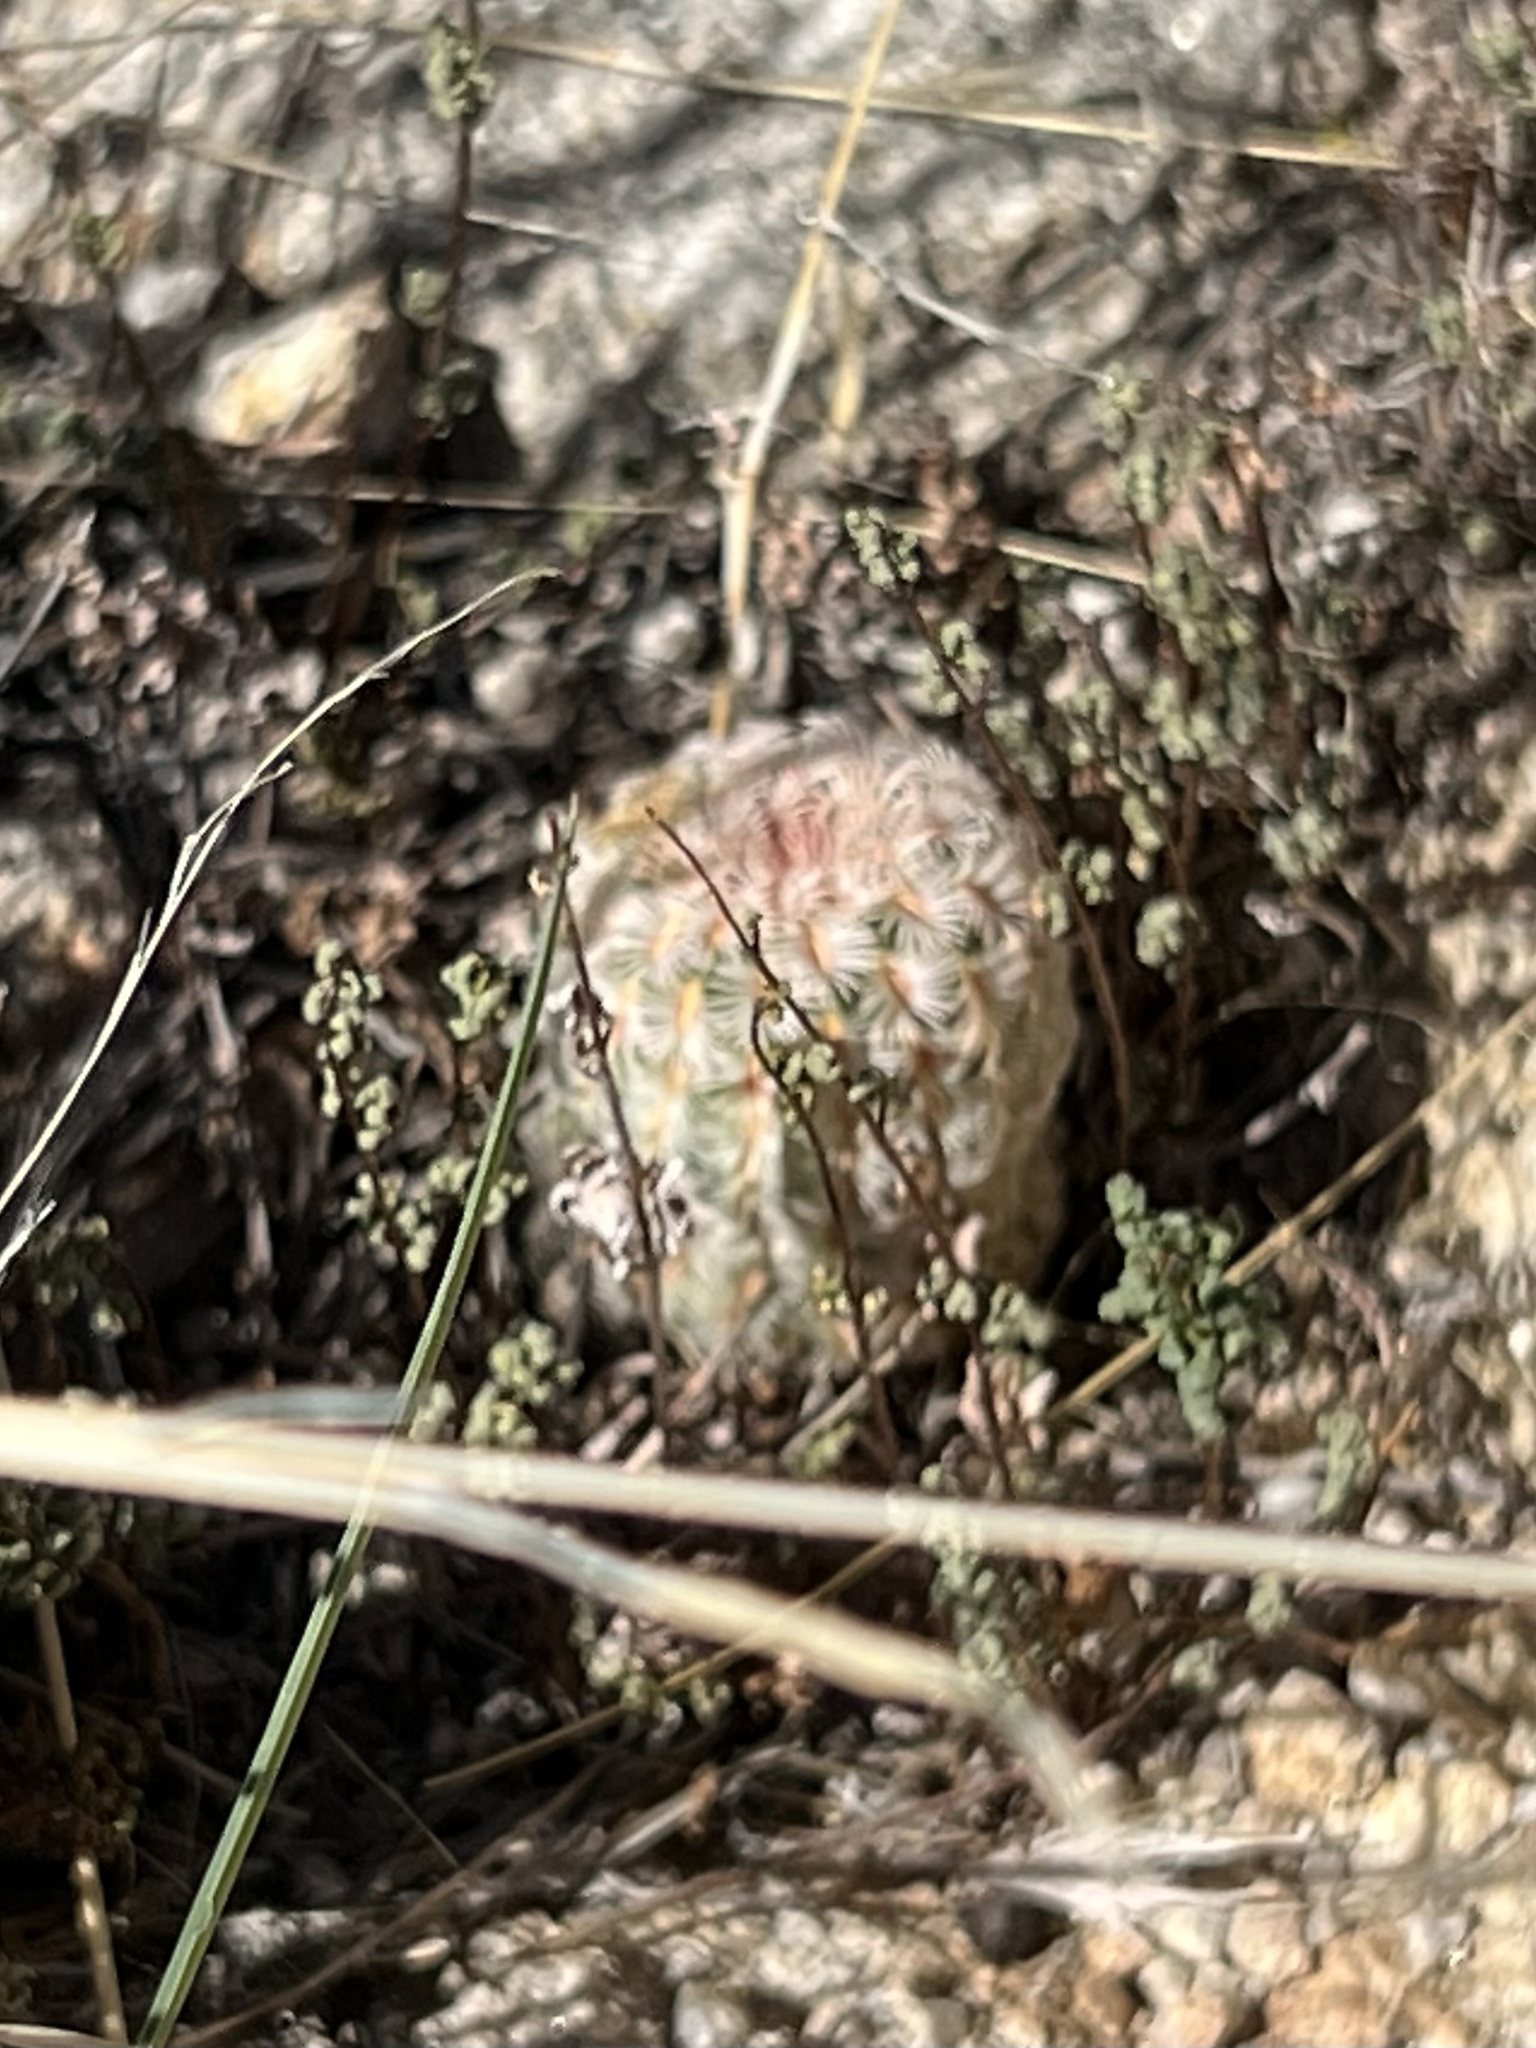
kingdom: Plantae
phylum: Tracheophyta
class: Magnoliopsida
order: Caryophyllales
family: Cactaceae
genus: Echinocereus
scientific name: Echinocereus rigidissimus
